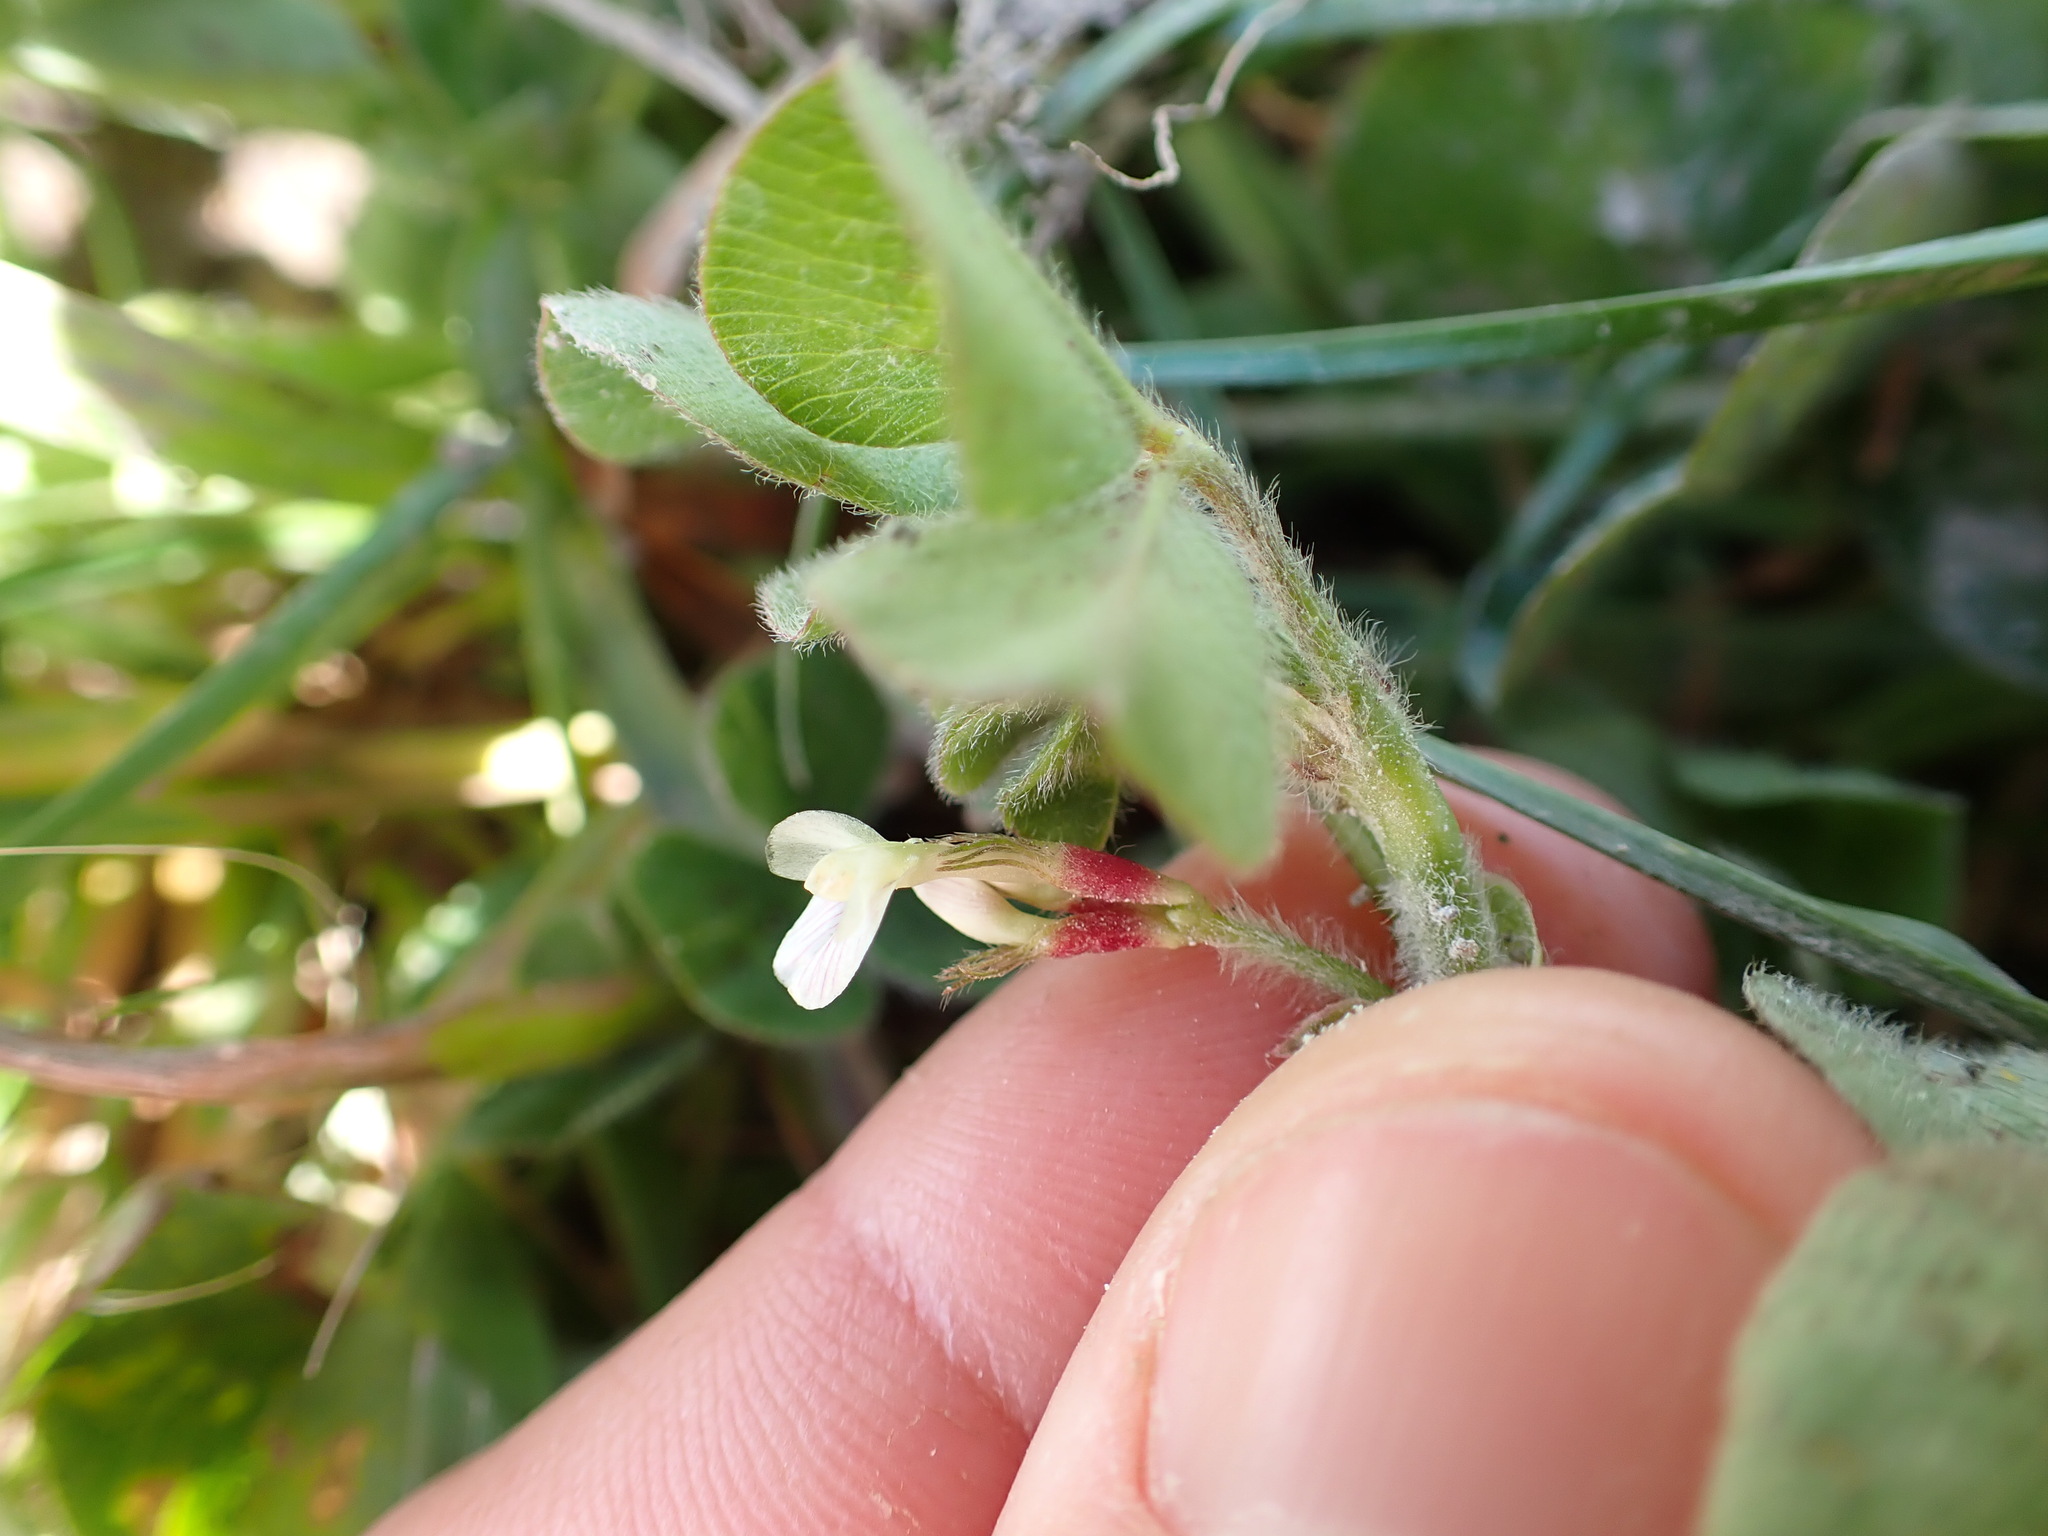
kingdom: Plantae
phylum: Tracheophyta
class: Magnoliopsida
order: Fabales
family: Fabaceae
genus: Trifolium
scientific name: Trifolium subterraneum
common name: Subterranean clover
